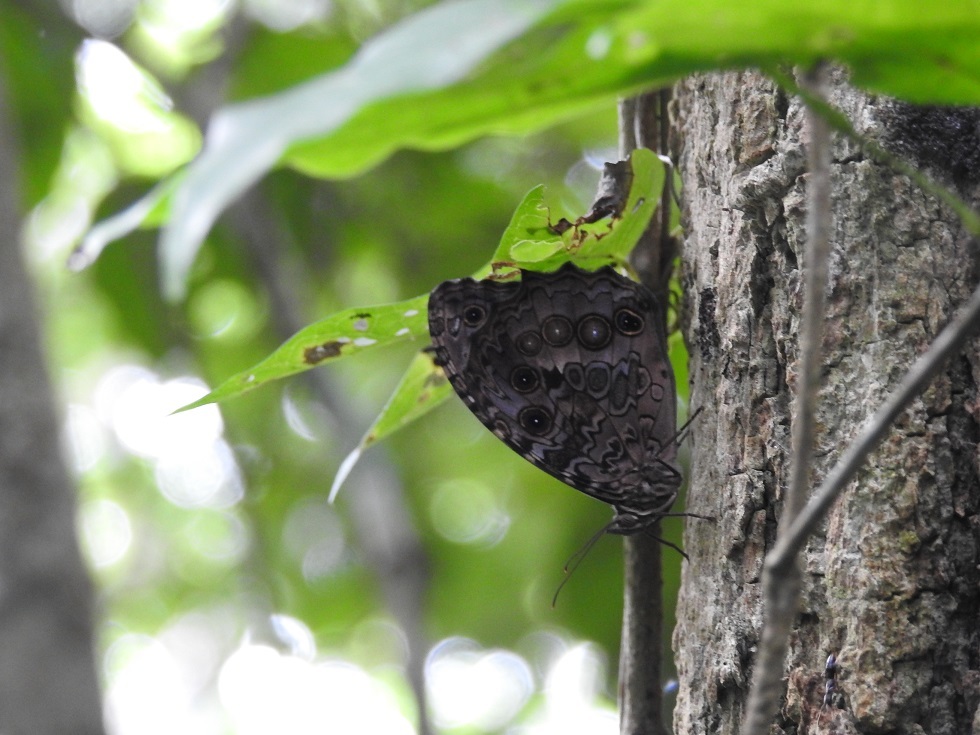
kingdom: Animalia
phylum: Arthropoda
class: Insecta
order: Lepidoptera
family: Nymphalidae
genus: Manataria
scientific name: Manataria maculata
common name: White-spotted satyr
